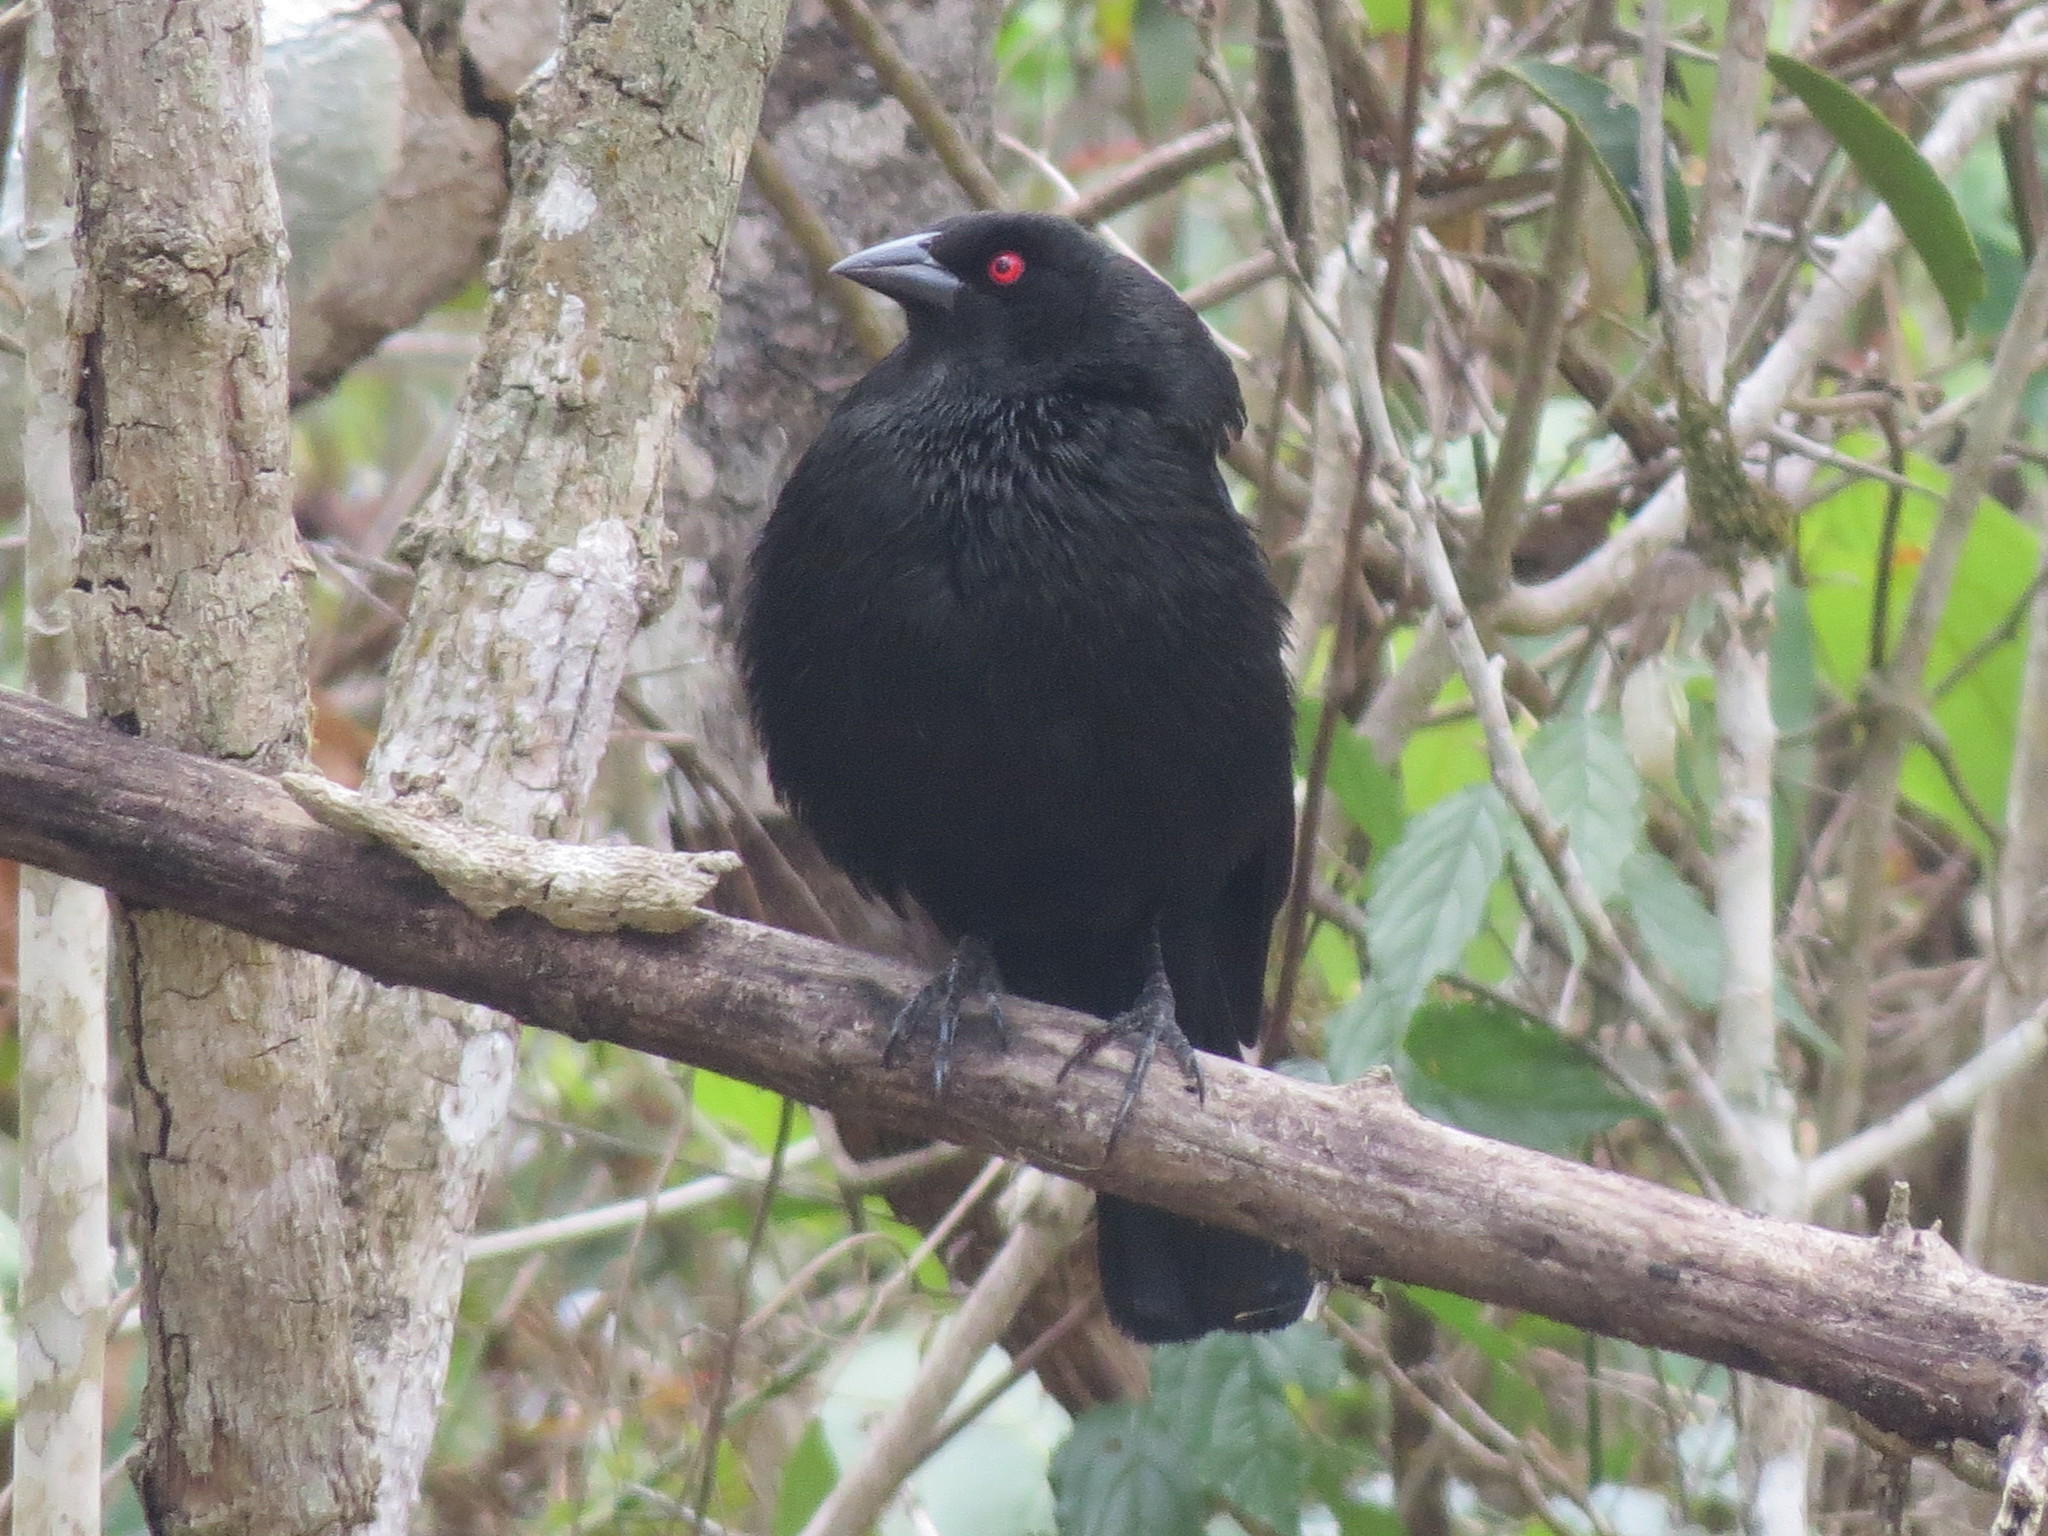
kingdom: Animalia
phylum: Chordata
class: Aves
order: Passeriformes
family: Icteridae
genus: Molothrus
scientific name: Molothrus aeneus
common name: Bronzed cowbird
